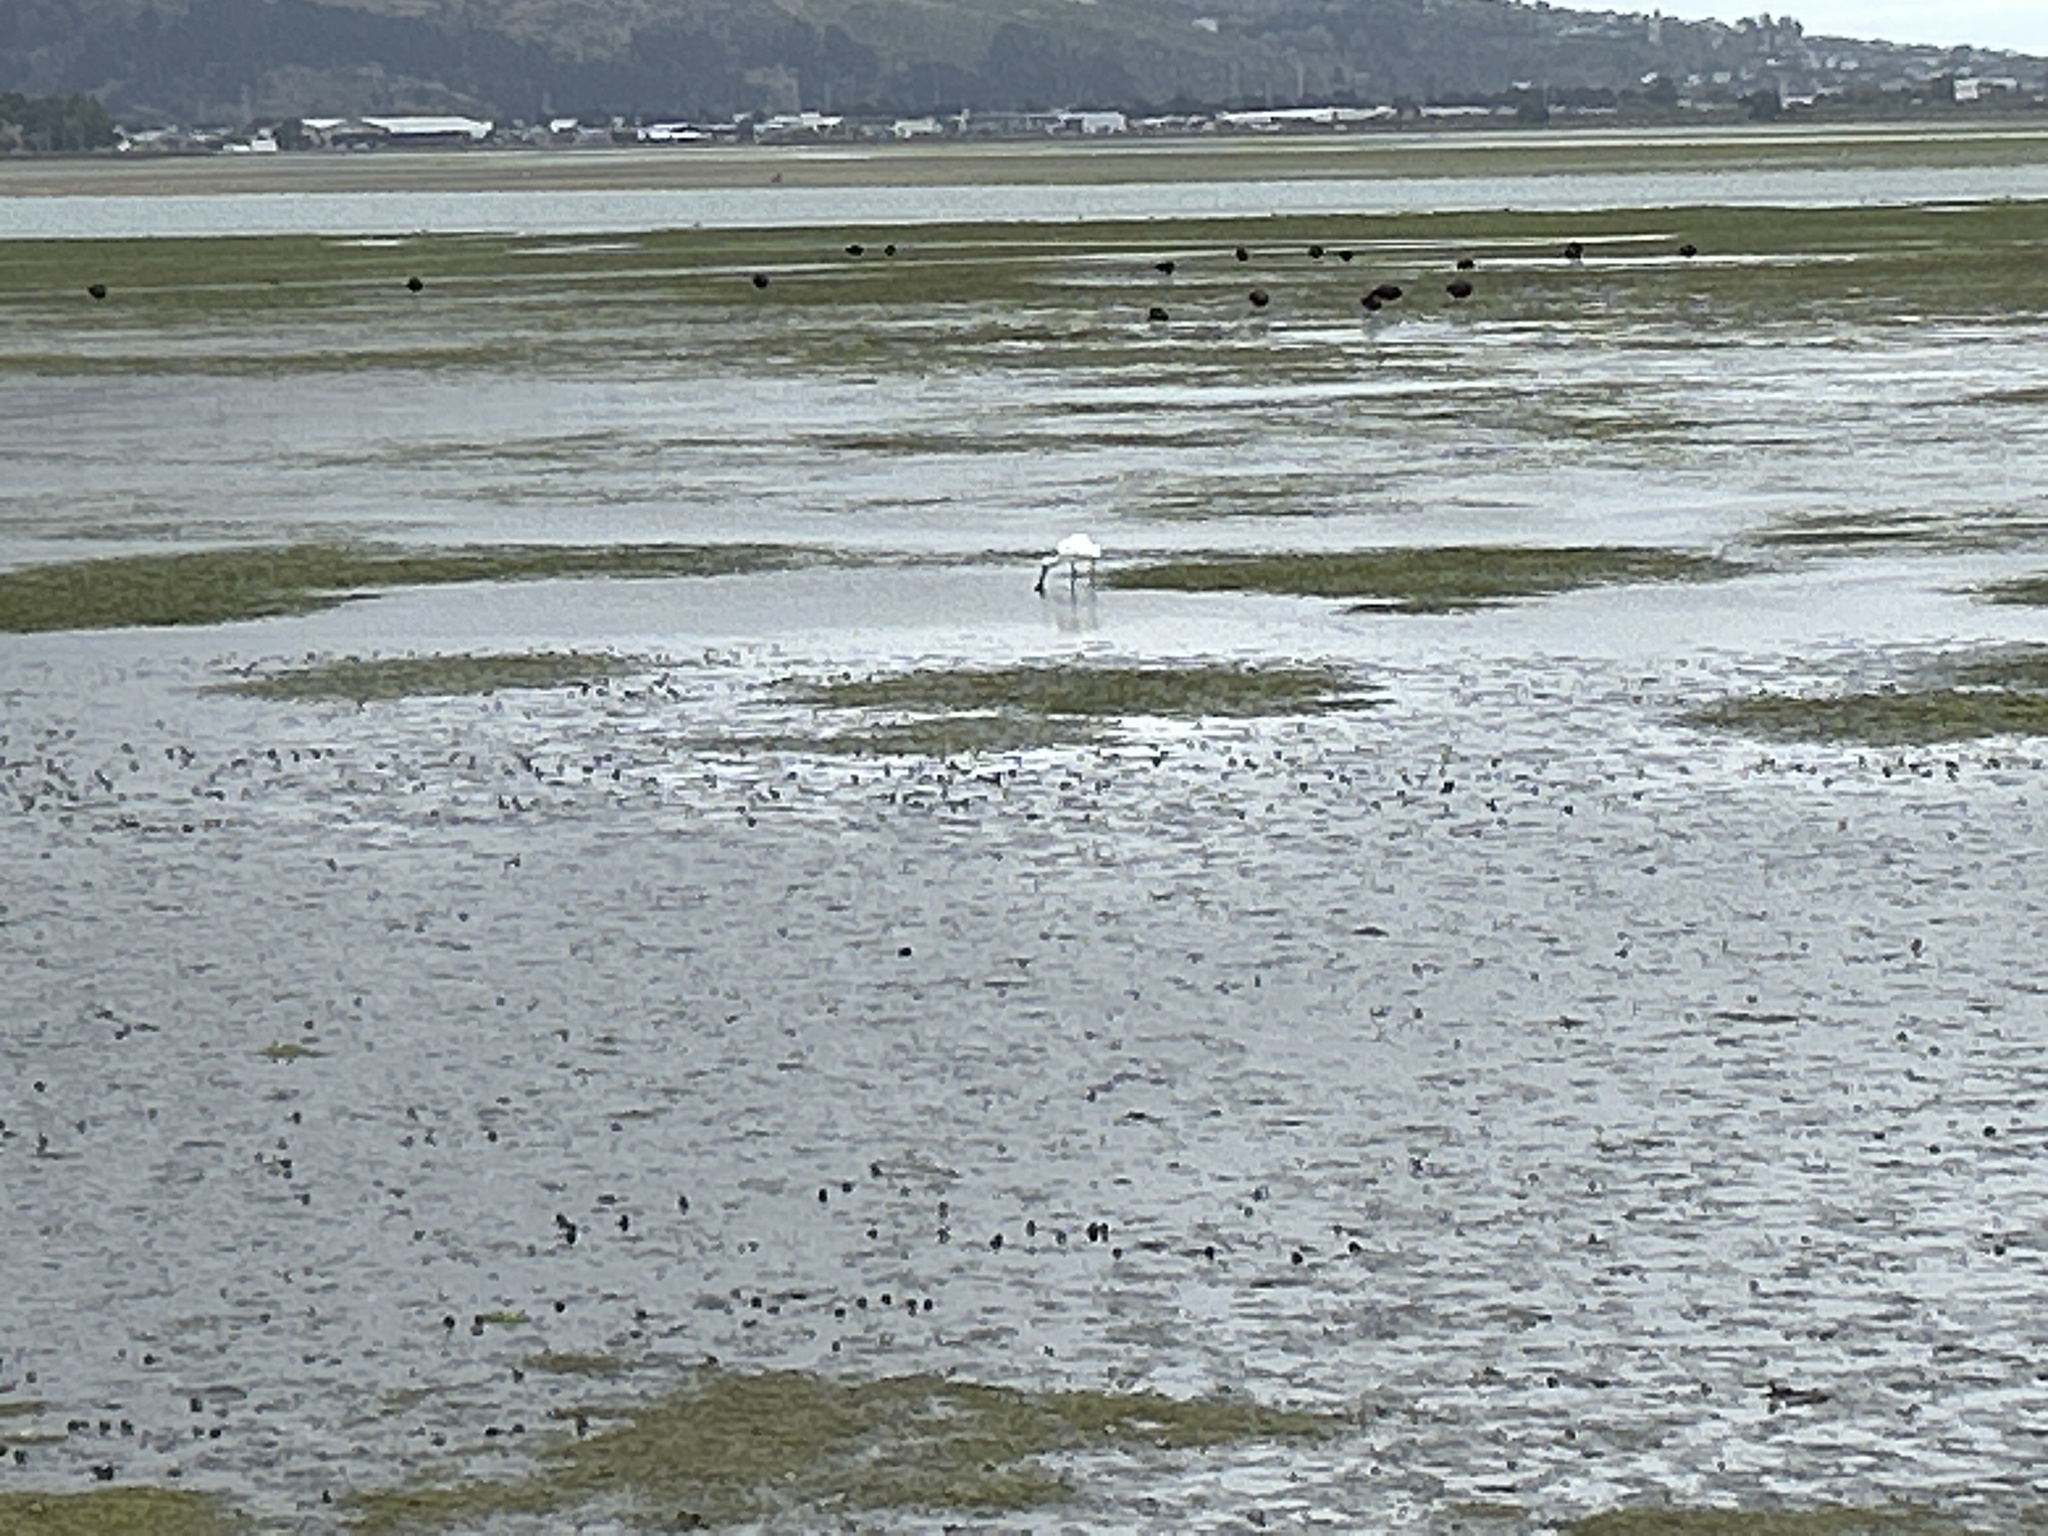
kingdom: Animalia
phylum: Chordata
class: Aves
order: Pelecaniformes
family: Threskiornithidae
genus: Platalea
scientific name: Platalea regia
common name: Royal spoonbill
